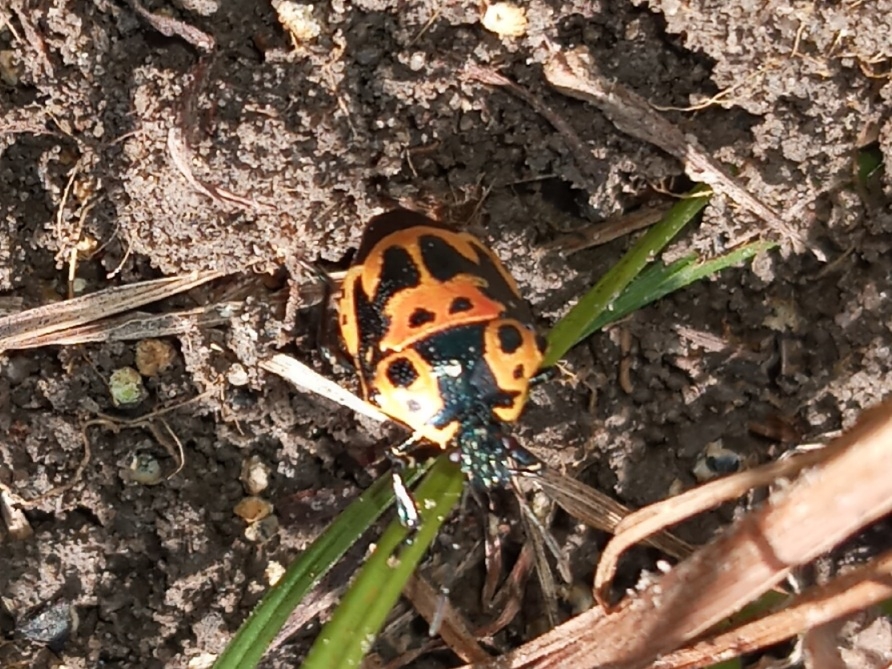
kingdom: Animalia
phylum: Arthropoda
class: Insecta
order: Hemiptera
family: Pentatomidae
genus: Stiretrus
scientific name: Stiretrus anchorago
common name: Anchor stink bug
